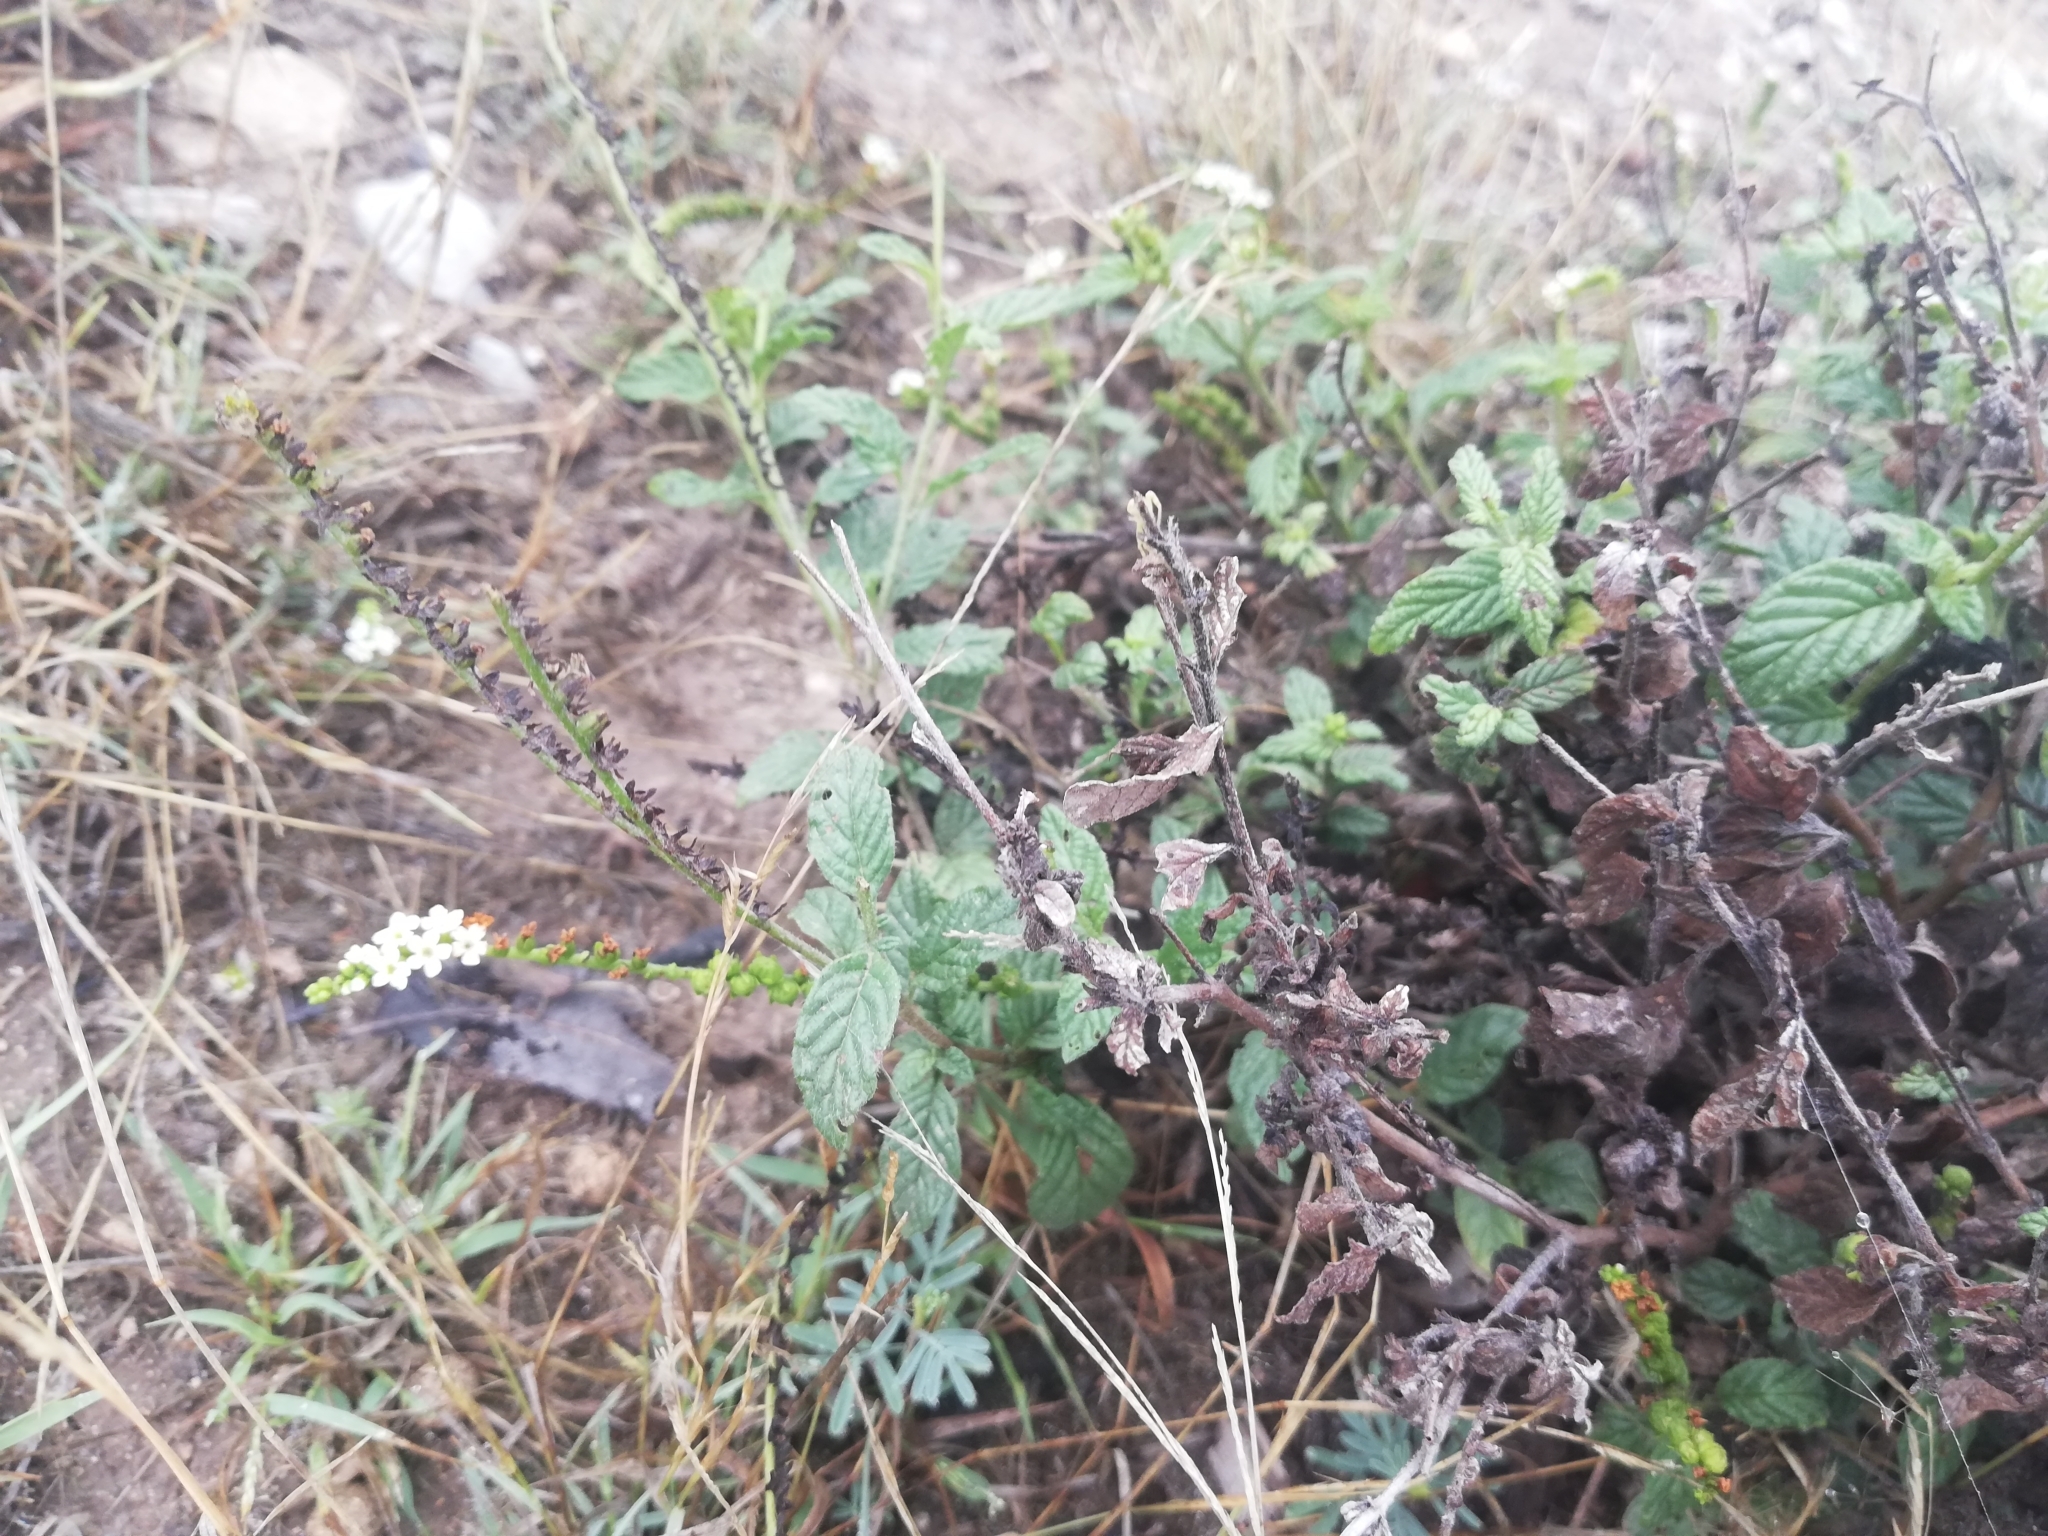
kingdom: Plantae
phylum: Tracheophyta
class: Magnoliopsida
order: Boraginales
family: Heliotropiaceae
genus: Heliotropium
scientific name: Heliotropium angiospermum
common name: Eye bright
